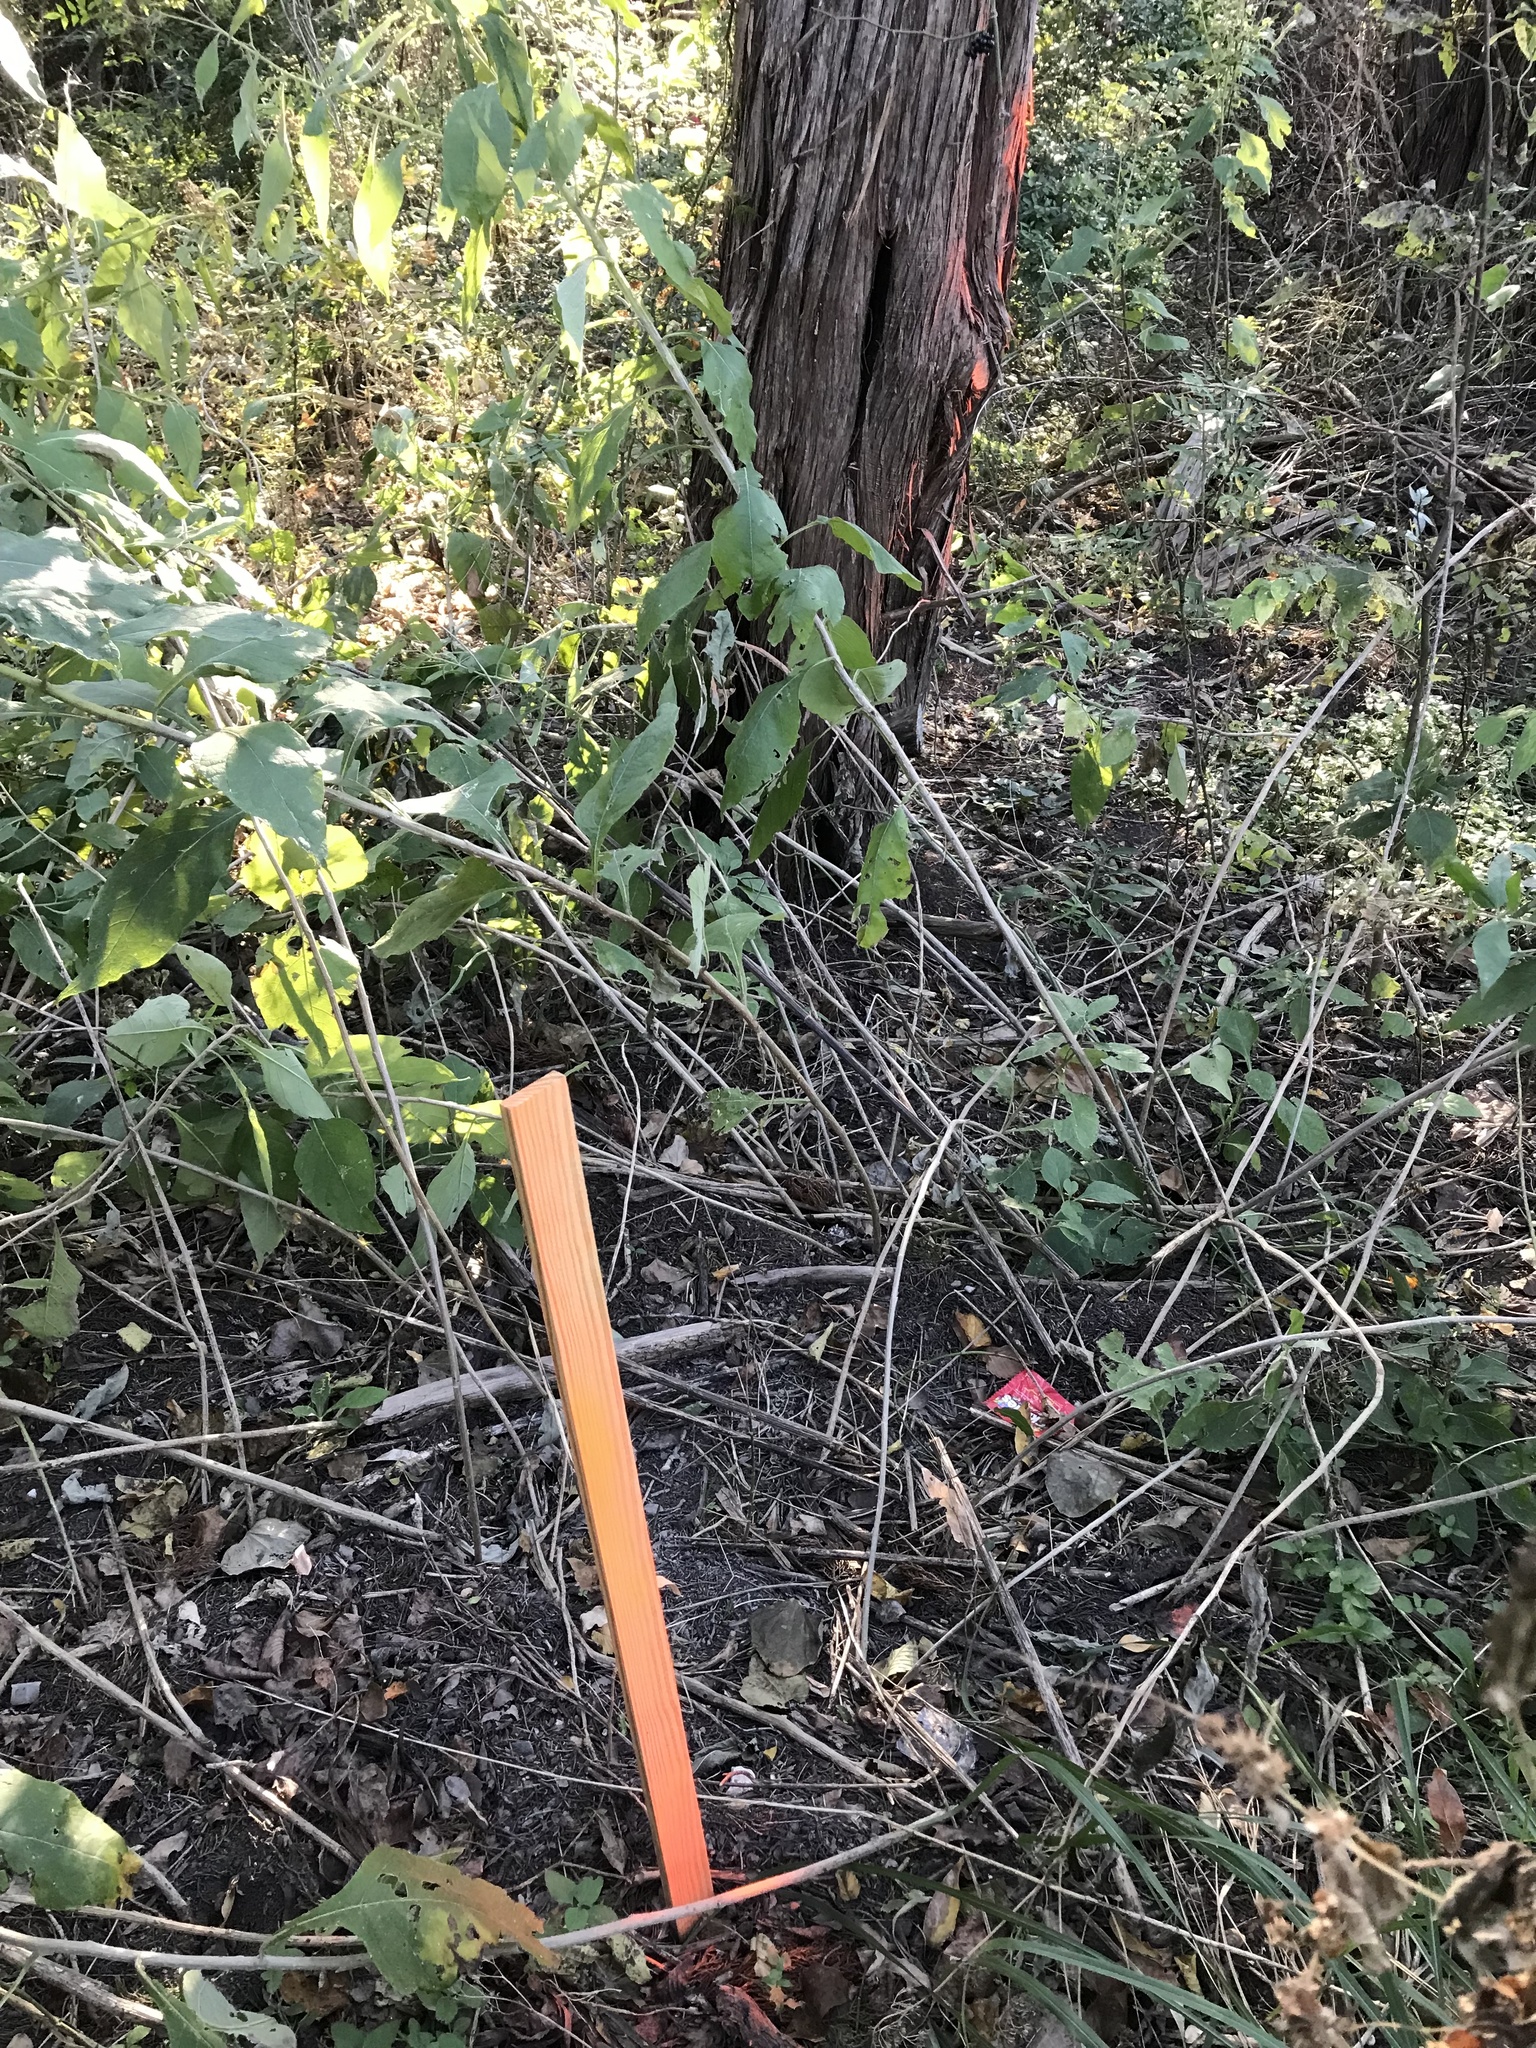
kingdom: Plantae
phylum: Tracheophyta
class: Magnoliopsida
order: Asterales
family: Asteraceae
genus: Verbesina
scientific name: Verbesina virginica
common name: Frostweed
